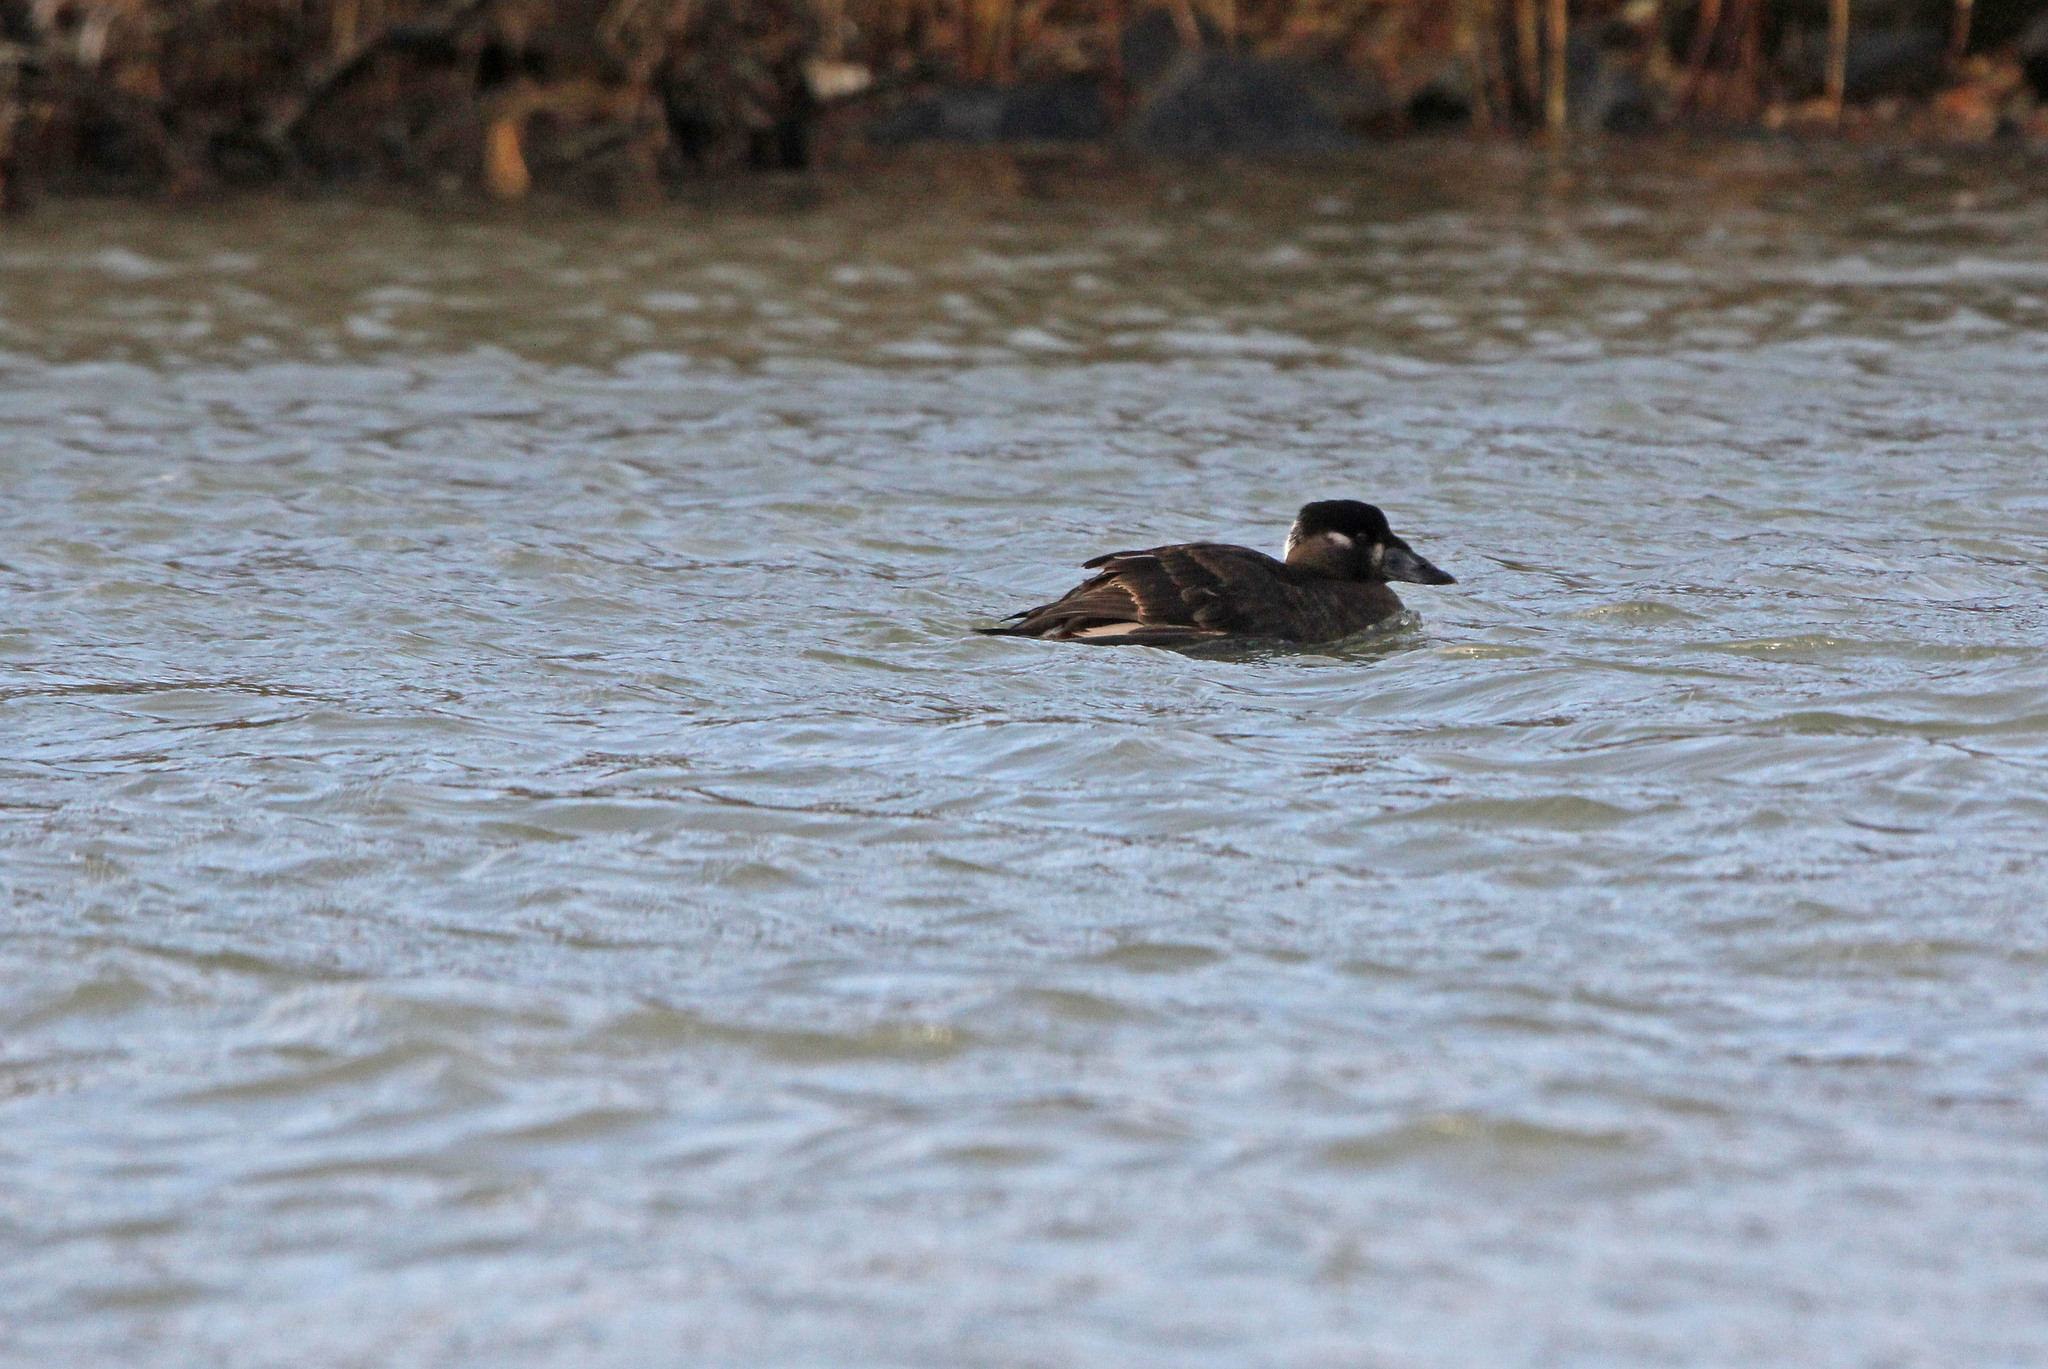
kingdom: Animalia
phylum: Chordata
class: Aves
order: Anseriformes
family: Anatidae
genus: Melanitta
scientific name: Melanitta perspicillata
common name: Surf scoter
